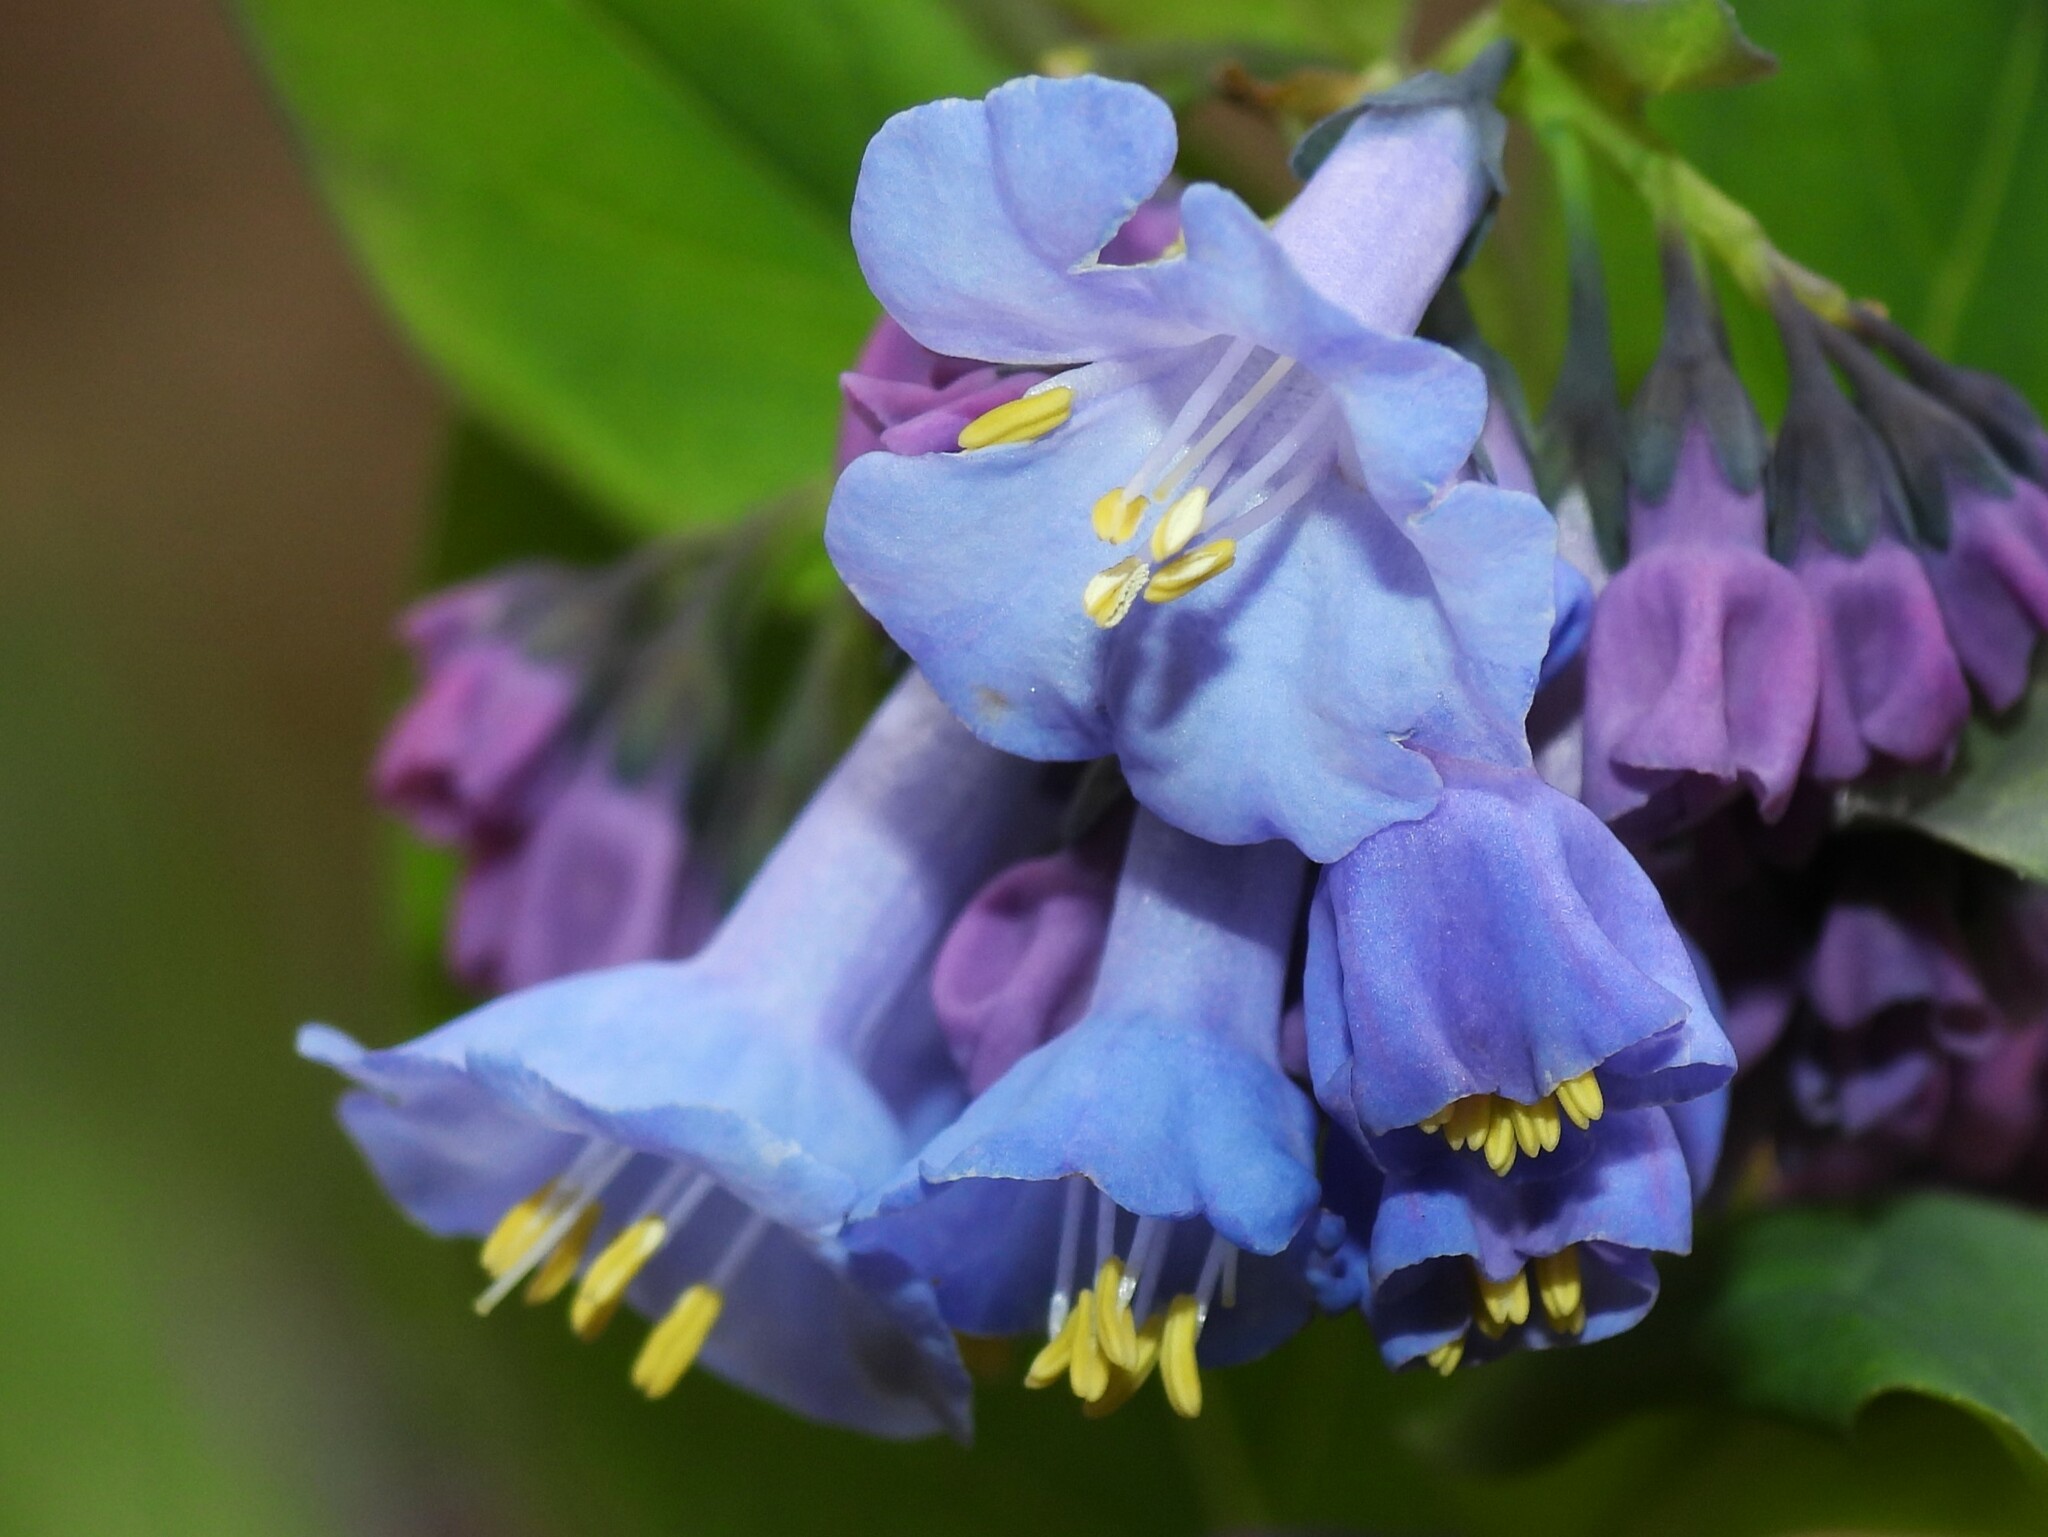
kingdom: Plantae
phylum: Tracheophyta
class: Magnoliopsida
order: Boraginales
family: Boraginaceae
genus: Mertensia
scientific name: Mertensia virginica
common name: Virginia bluebells
